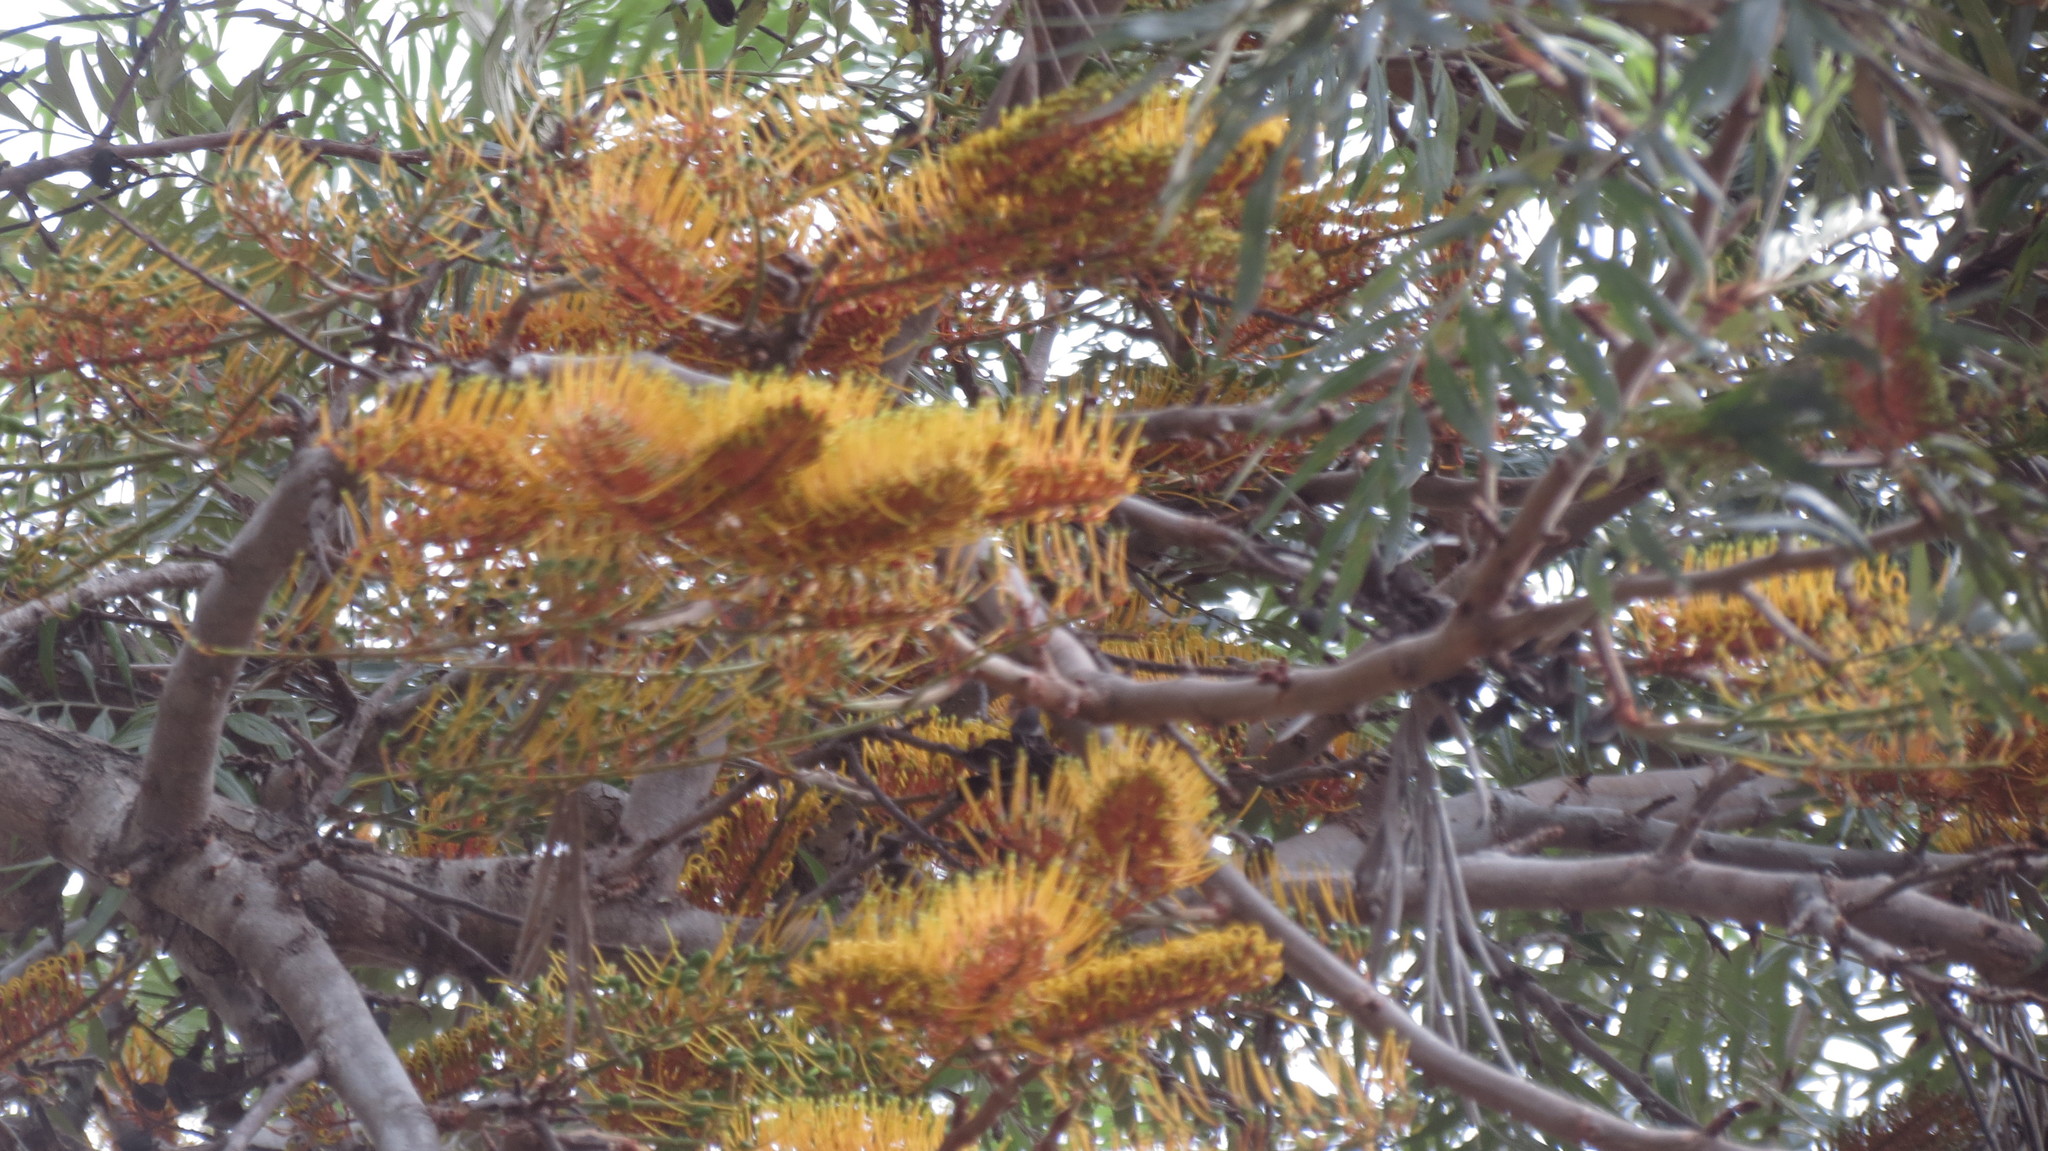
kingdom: Plantae
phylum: Tracheophyta
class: Magnoliopsida
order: Proteales
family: Proteaceae
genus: Grevillea
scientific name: Grevillea robusta
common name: Silkoak
